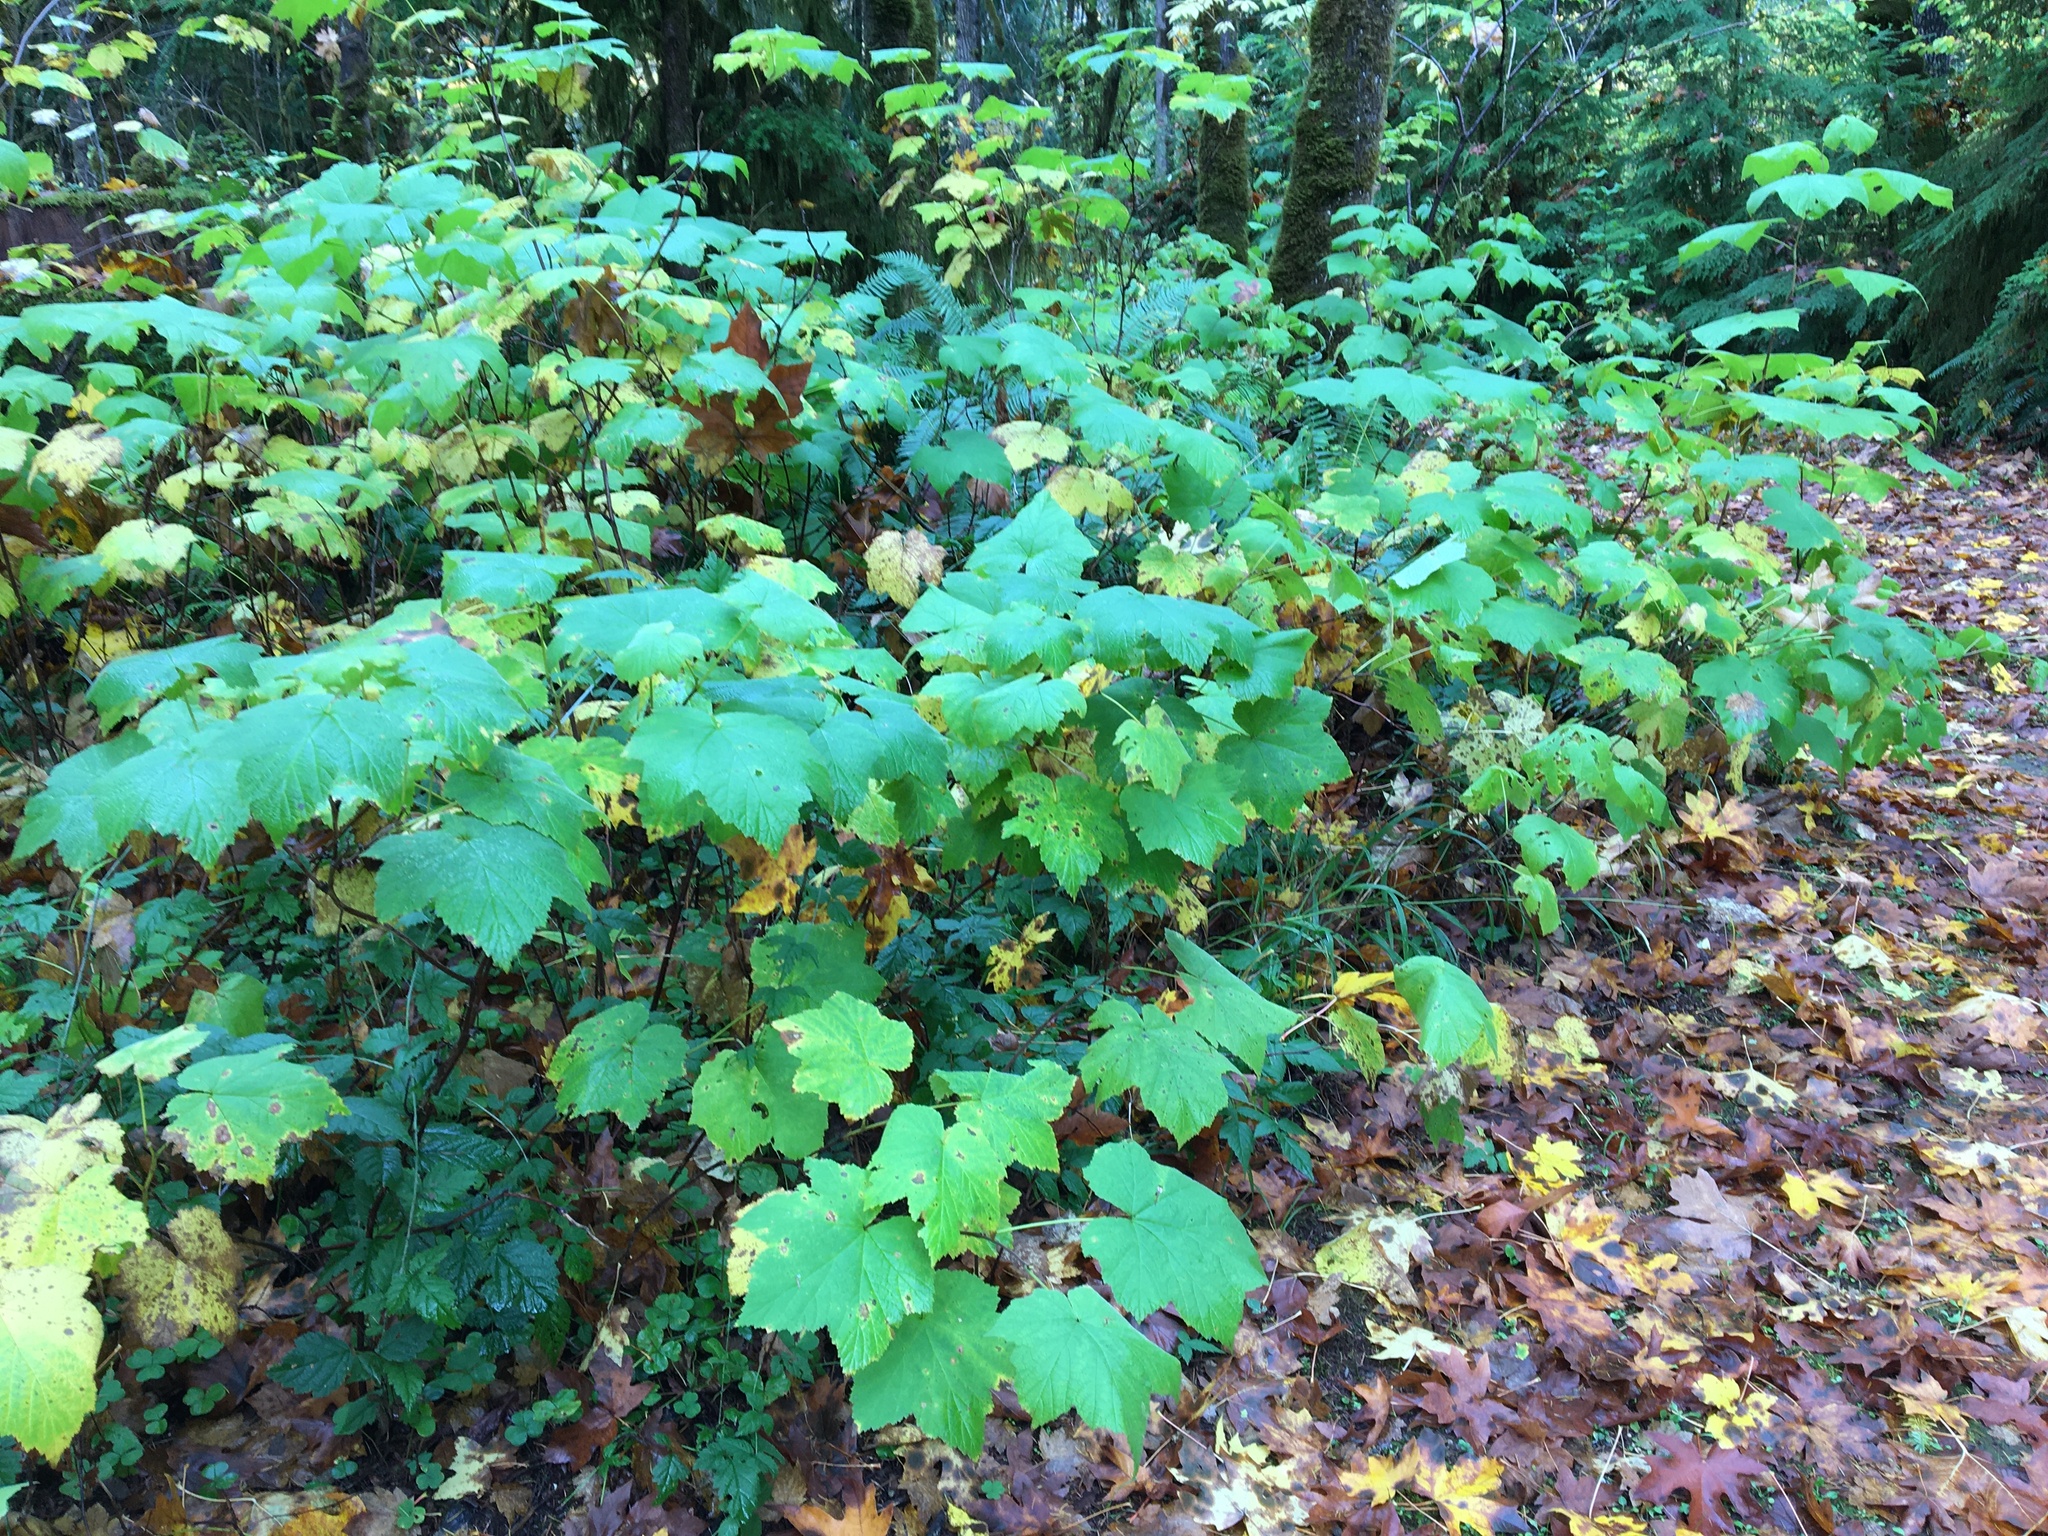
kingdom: Plantae
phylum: Tracheophyta
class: Magnoliopsida
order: Rosales
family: Rosaceae
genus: Rubus
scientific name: Rubus parviflorus
